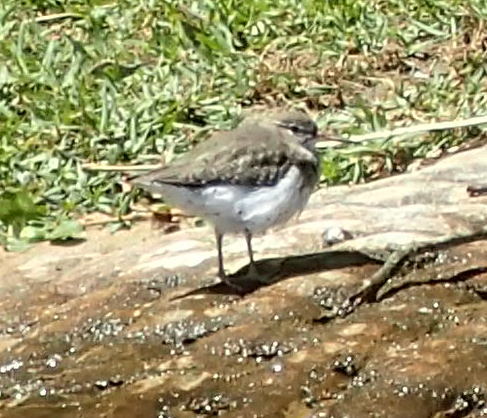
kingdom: Animalia
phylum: Chordata
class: Aves
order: Charadriiformes
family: Scolopacidae
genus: Actitis
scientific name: Actitis macularius
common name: Spotted sandpiper
